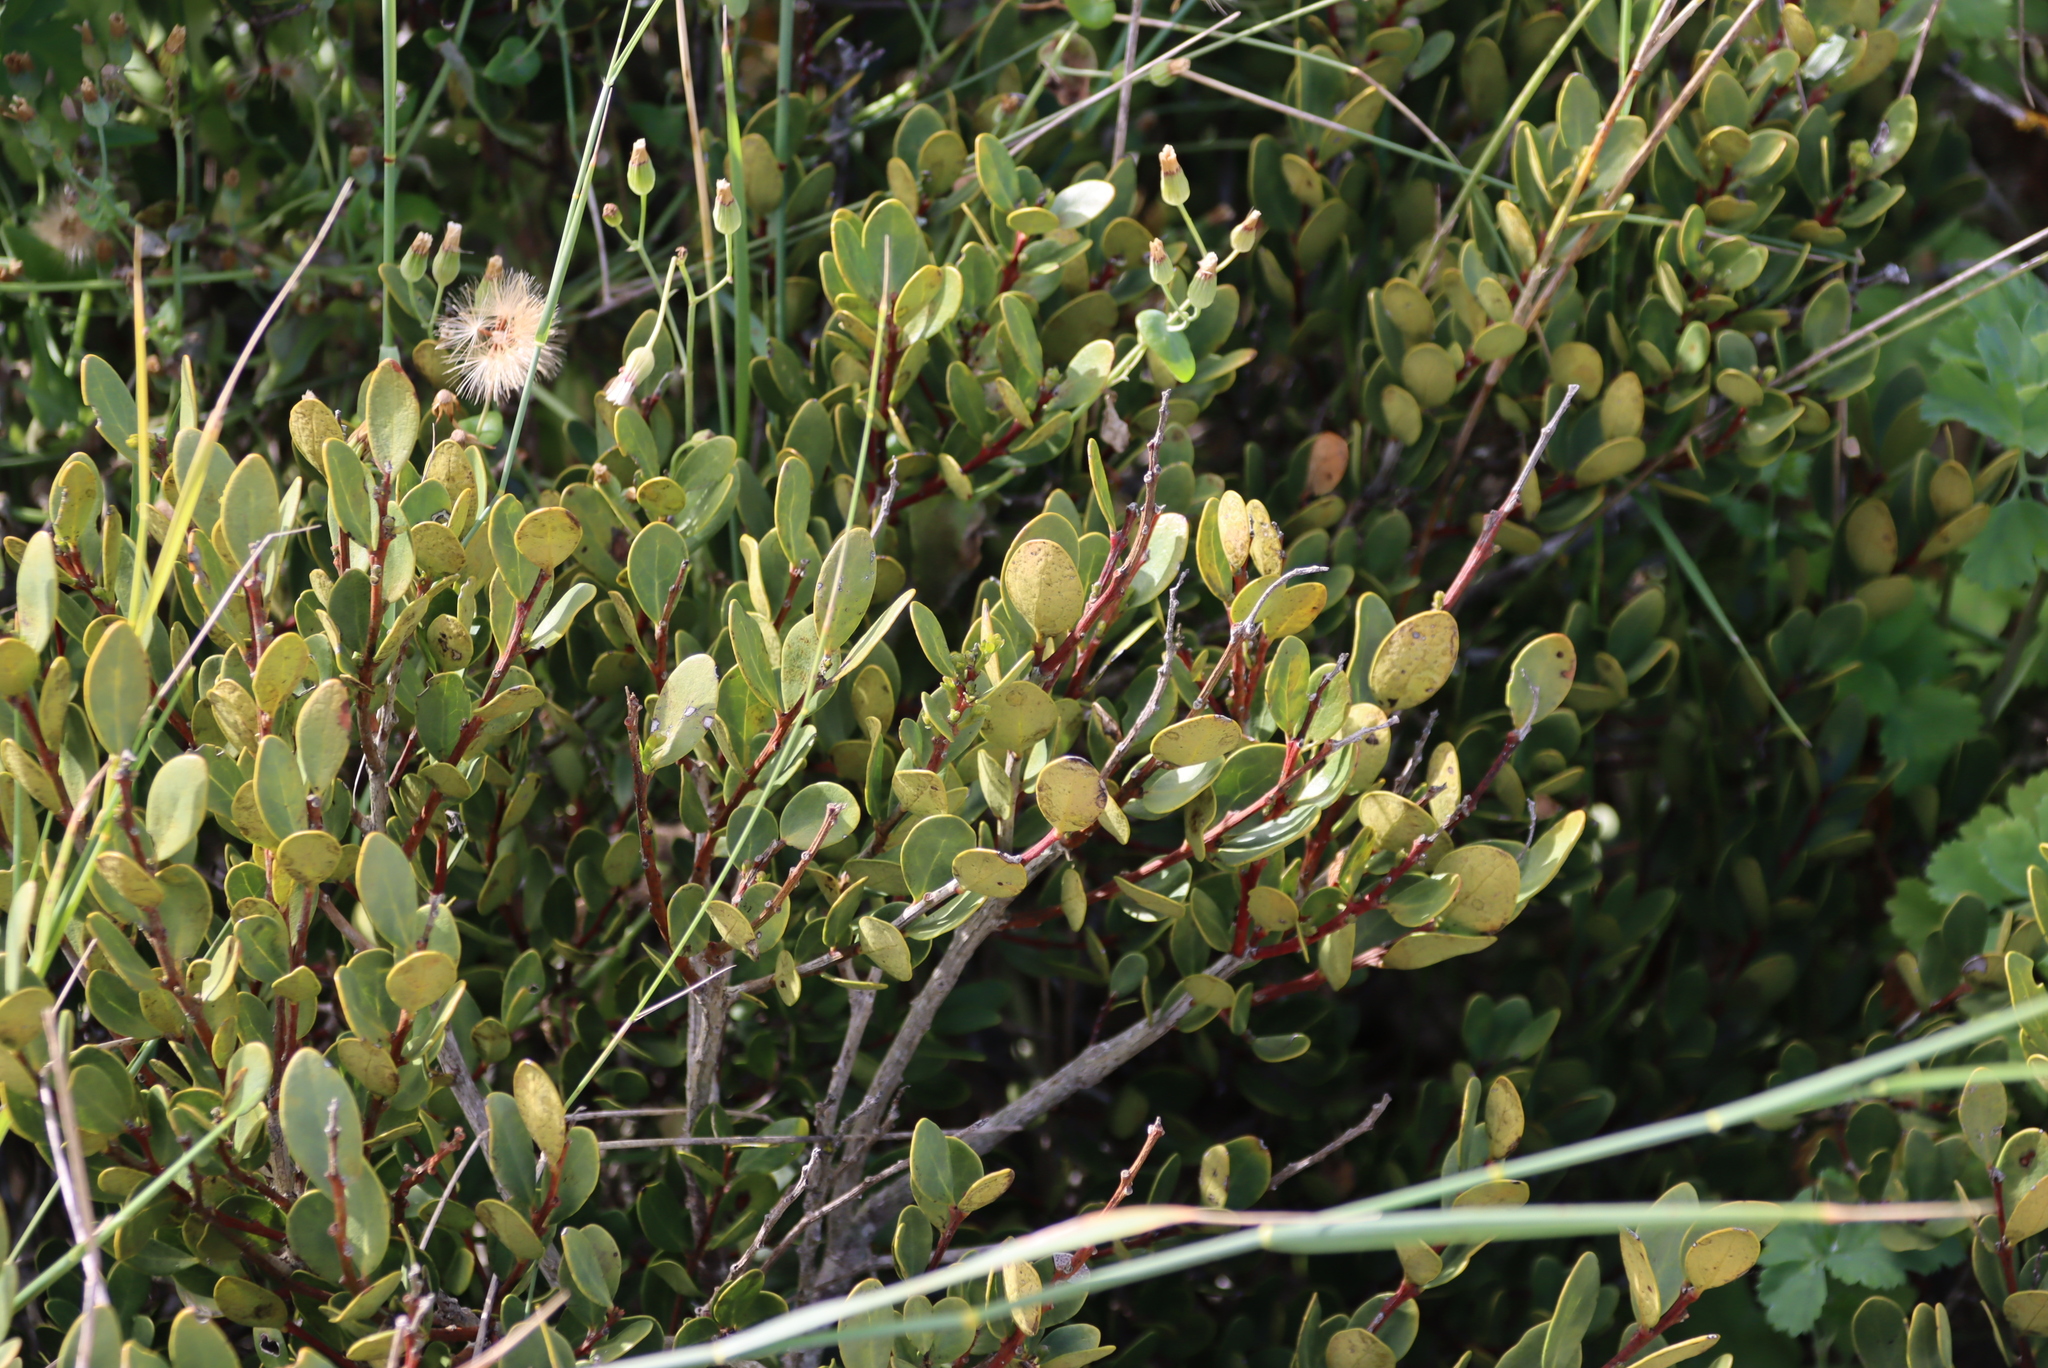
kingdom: Plantae
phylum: Tracheophyta
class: Magnoliopsida
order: Ericales
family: Ebenaceae
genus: Euclea
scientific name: Euclea racemosa
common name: Dune guarri
